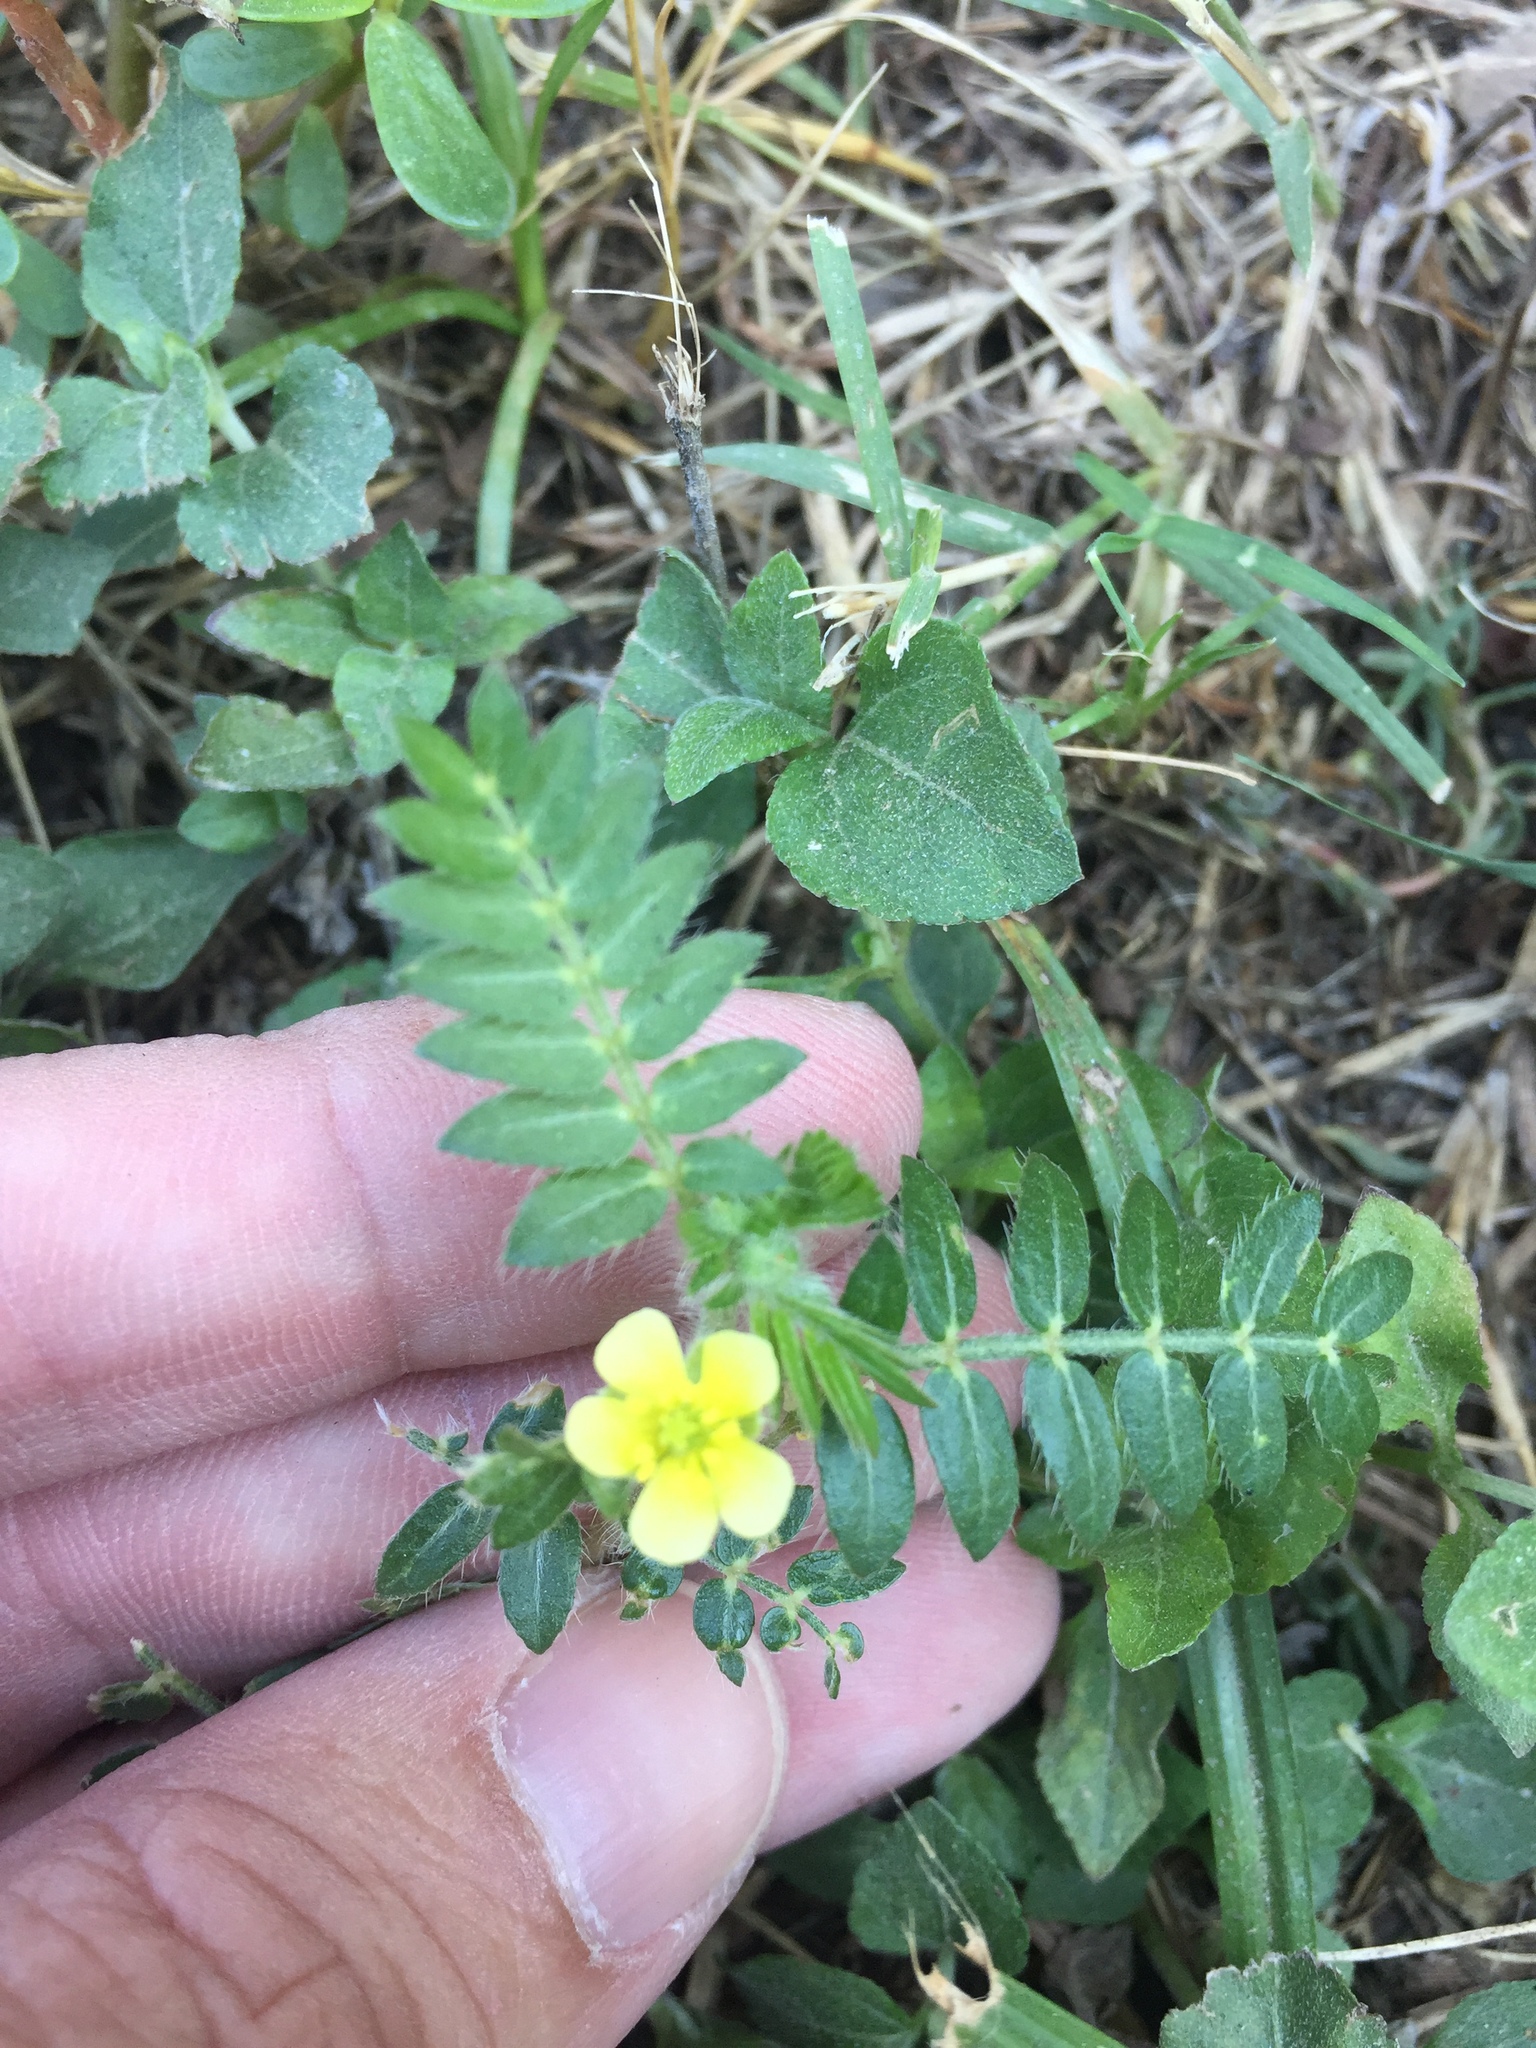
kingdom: Plantae
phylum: Tracheophyta
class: Magnoliopsida
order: Zygophyllales
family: Zygophyllaceae
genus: Tribulus
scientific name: Tribulus terrestris
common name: Puncturevine
